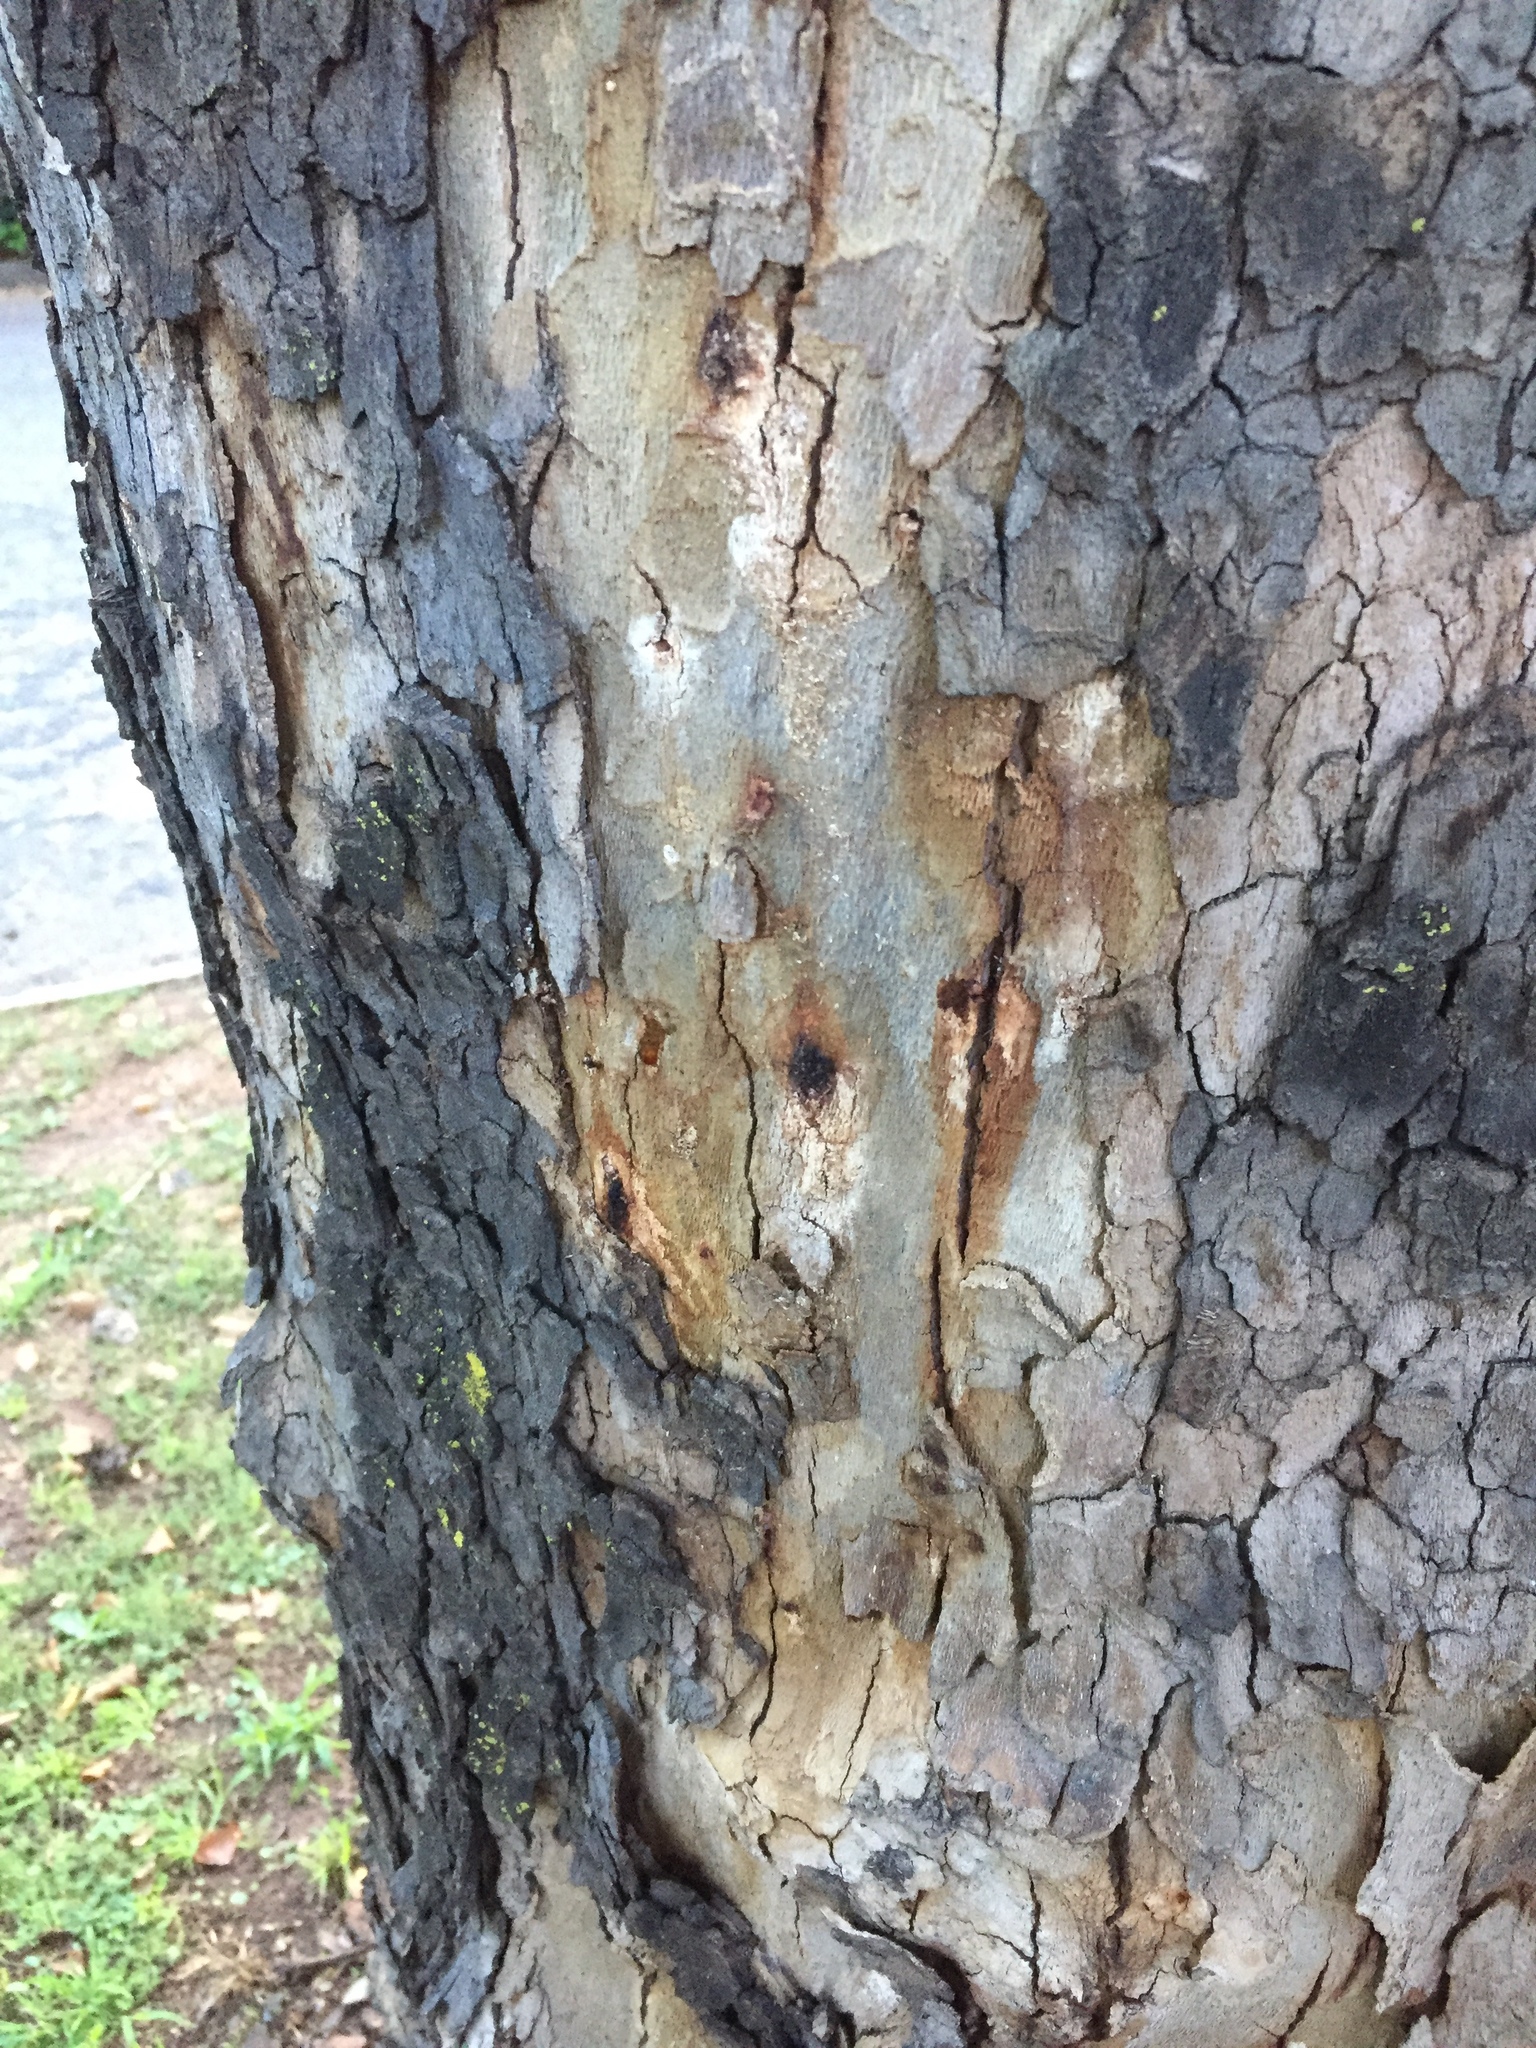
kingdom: Animalia
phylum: Arthropoda
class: Insecta
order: Coleoptera
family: Curculionidae
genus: Euwallacea
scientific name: Euwallacea fornicatus
